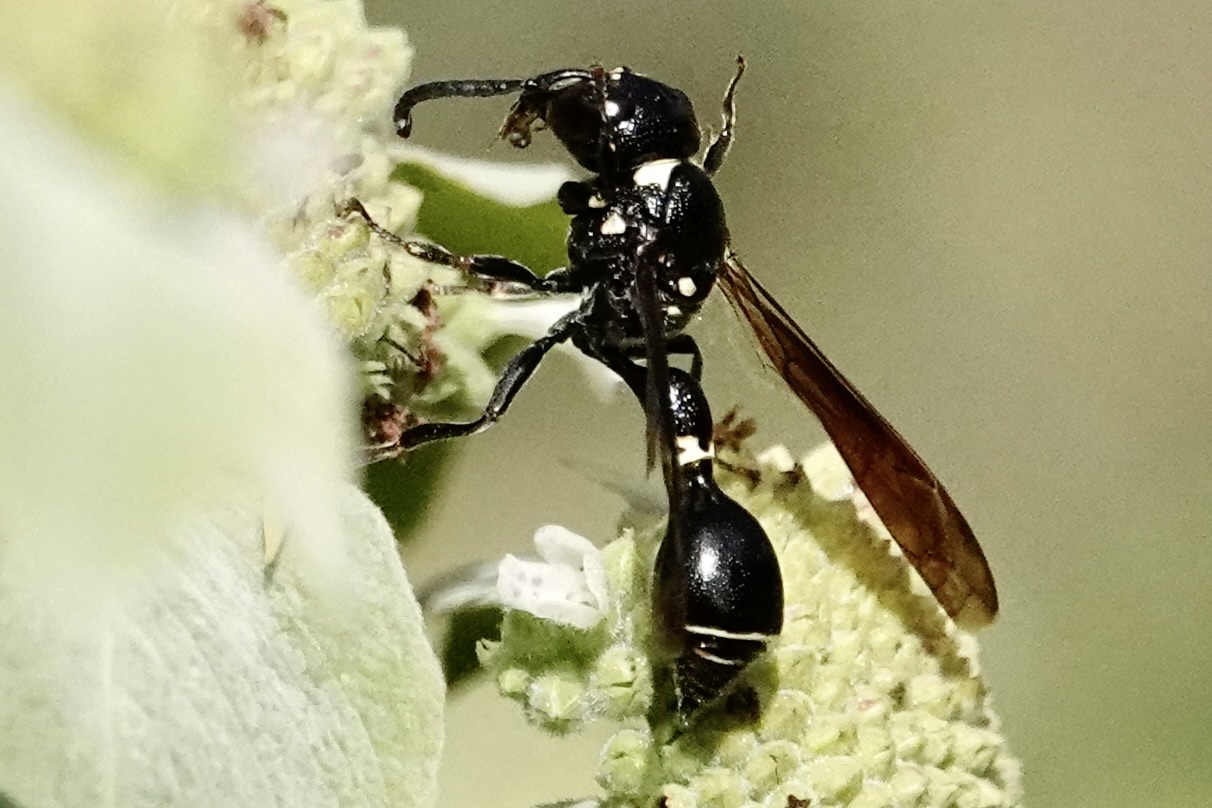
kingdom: Animalia
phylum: Arthropoda
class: Insecta
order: Hymenoptera
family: Eumenidae
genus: Zethus
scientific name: Zethus spinipes
